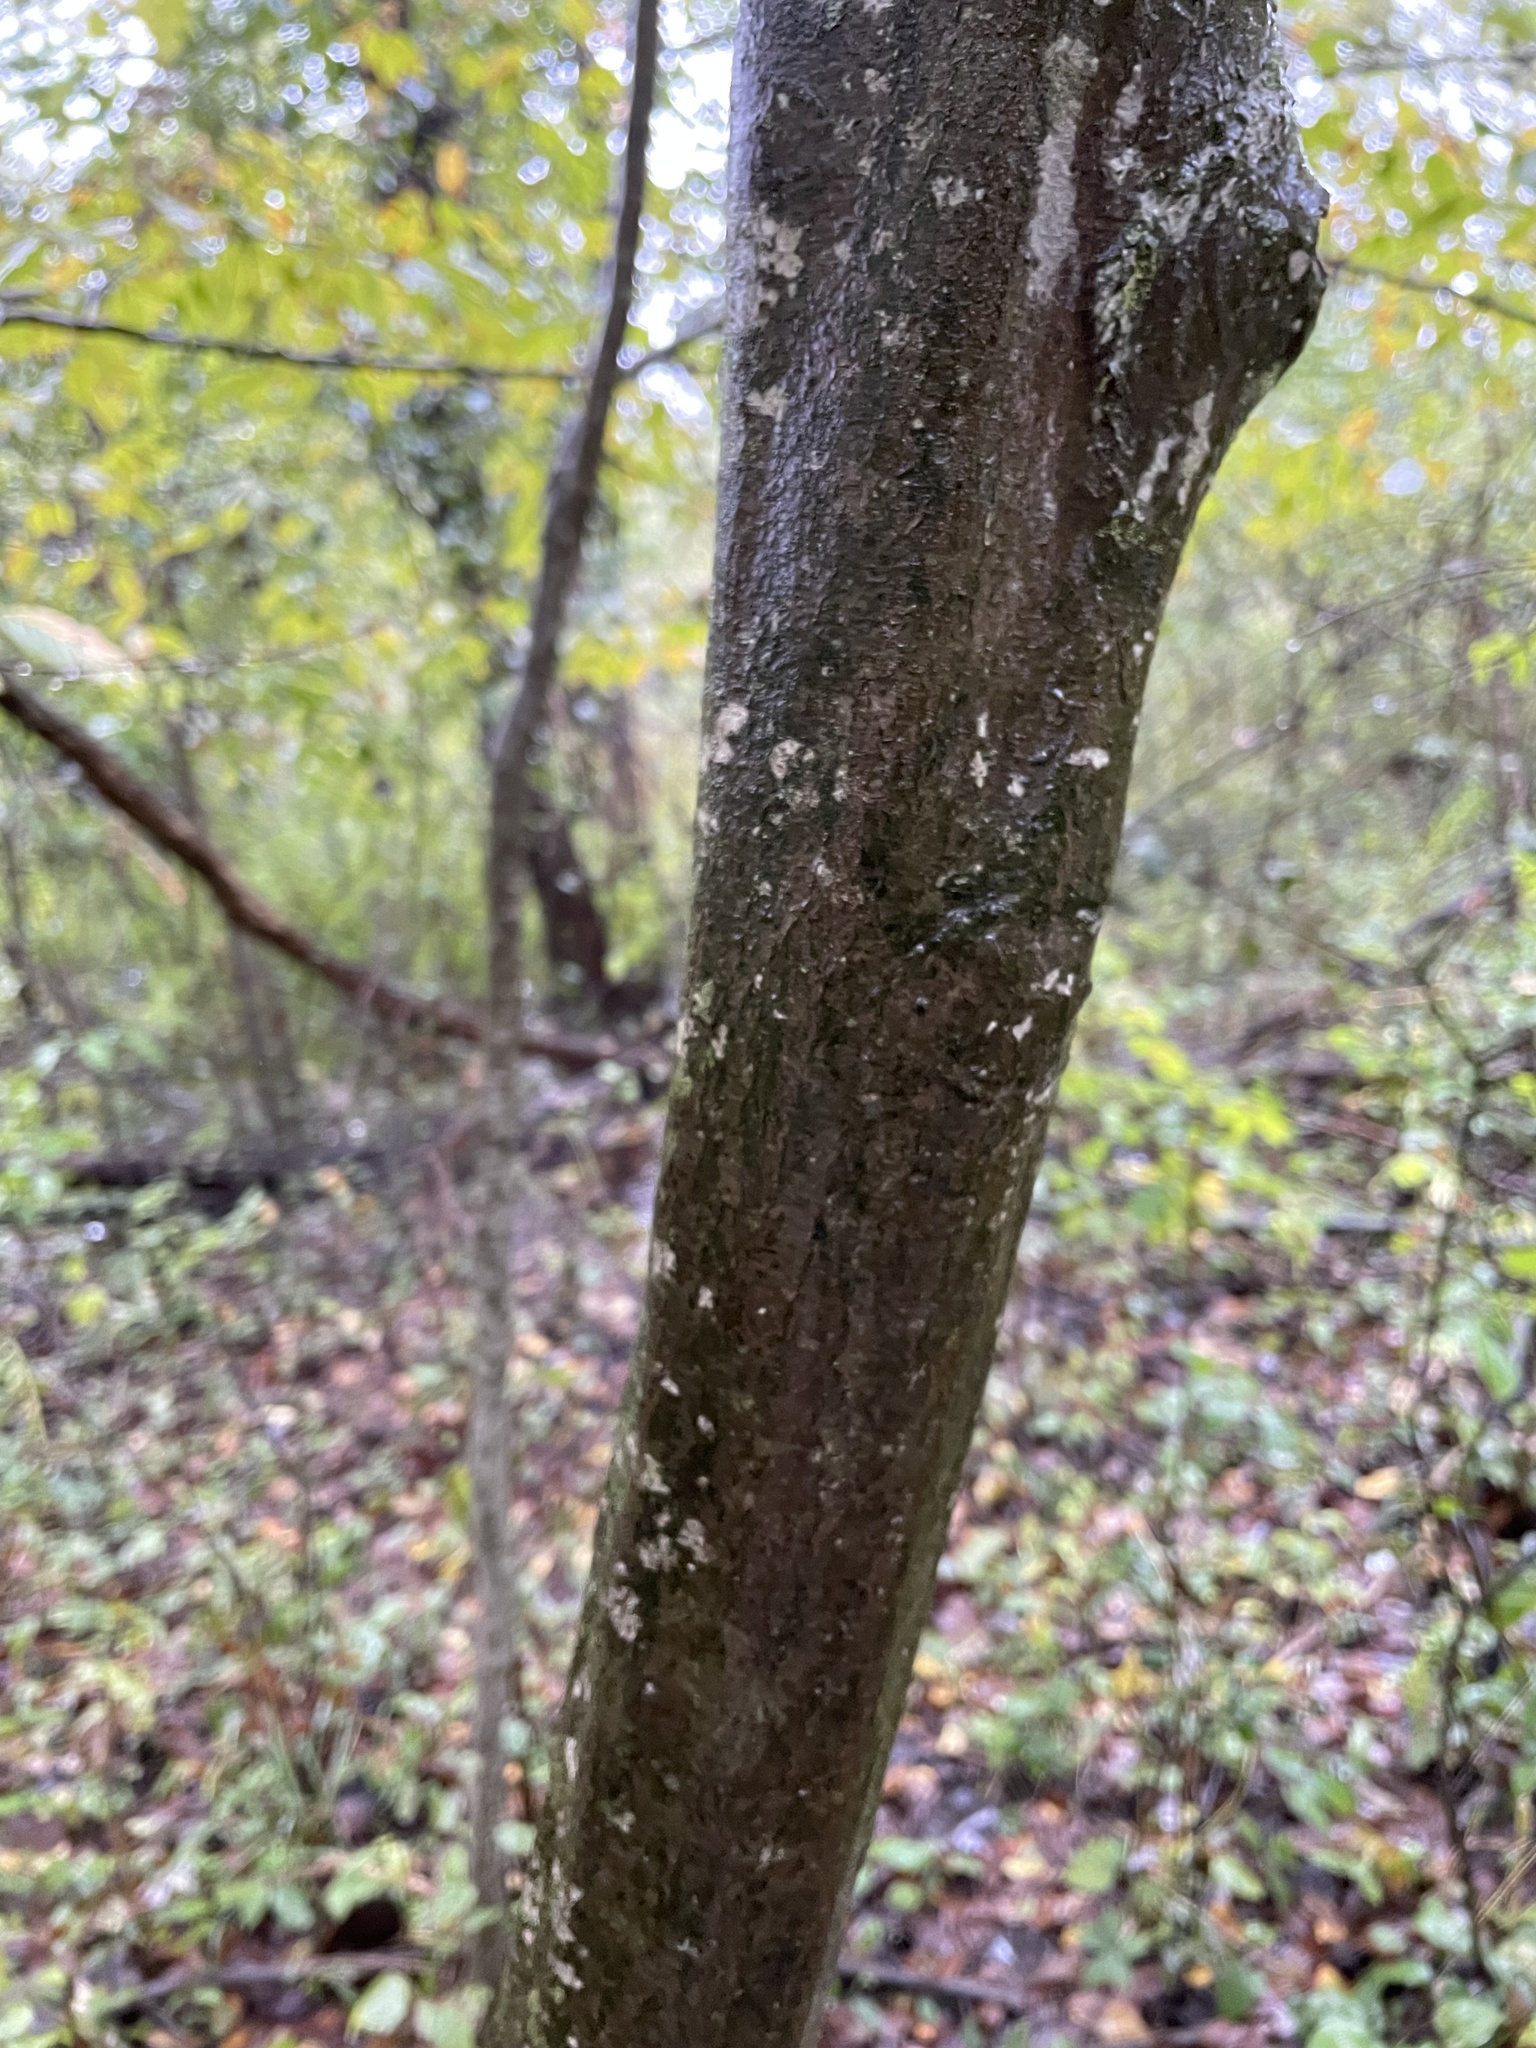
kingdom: Plantae
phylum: Tracheophyta
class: Magnoliopsida
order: Fagales
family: Betulaceae
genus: Carpinus
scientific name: Carpinus caroliniana
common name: American hornbeam
